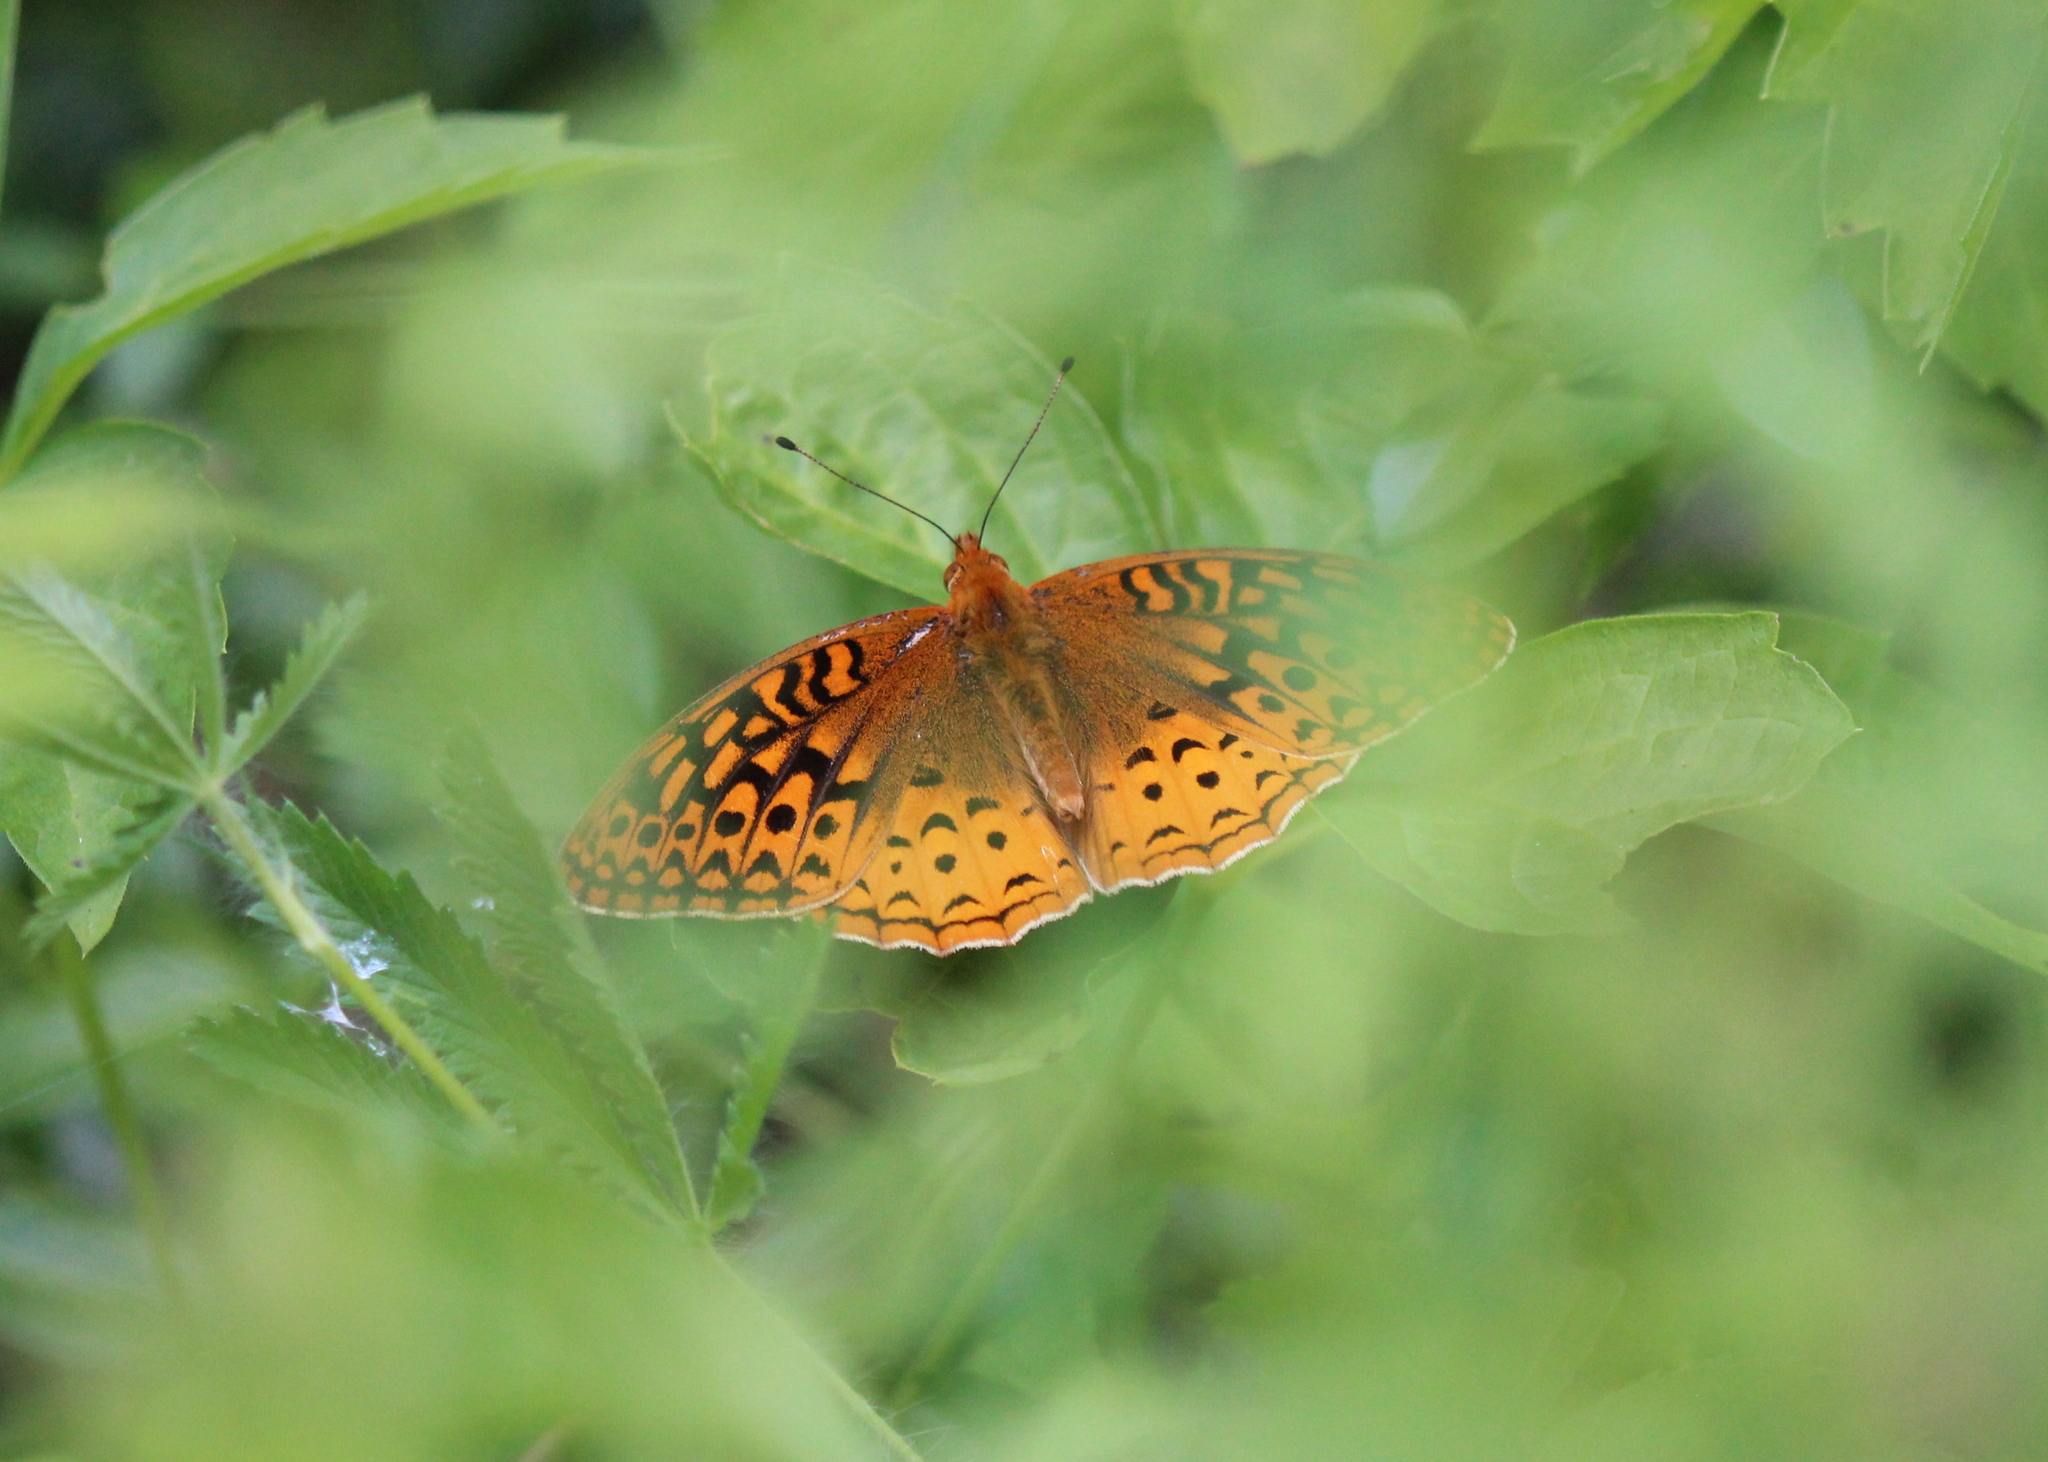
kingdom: Animalia
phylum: Arthropoda
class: Insecta
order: Lepidoptera
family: Nymphalidae
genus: Speyeria
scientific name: Speyeria cybele
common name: Great spangled fritillary
